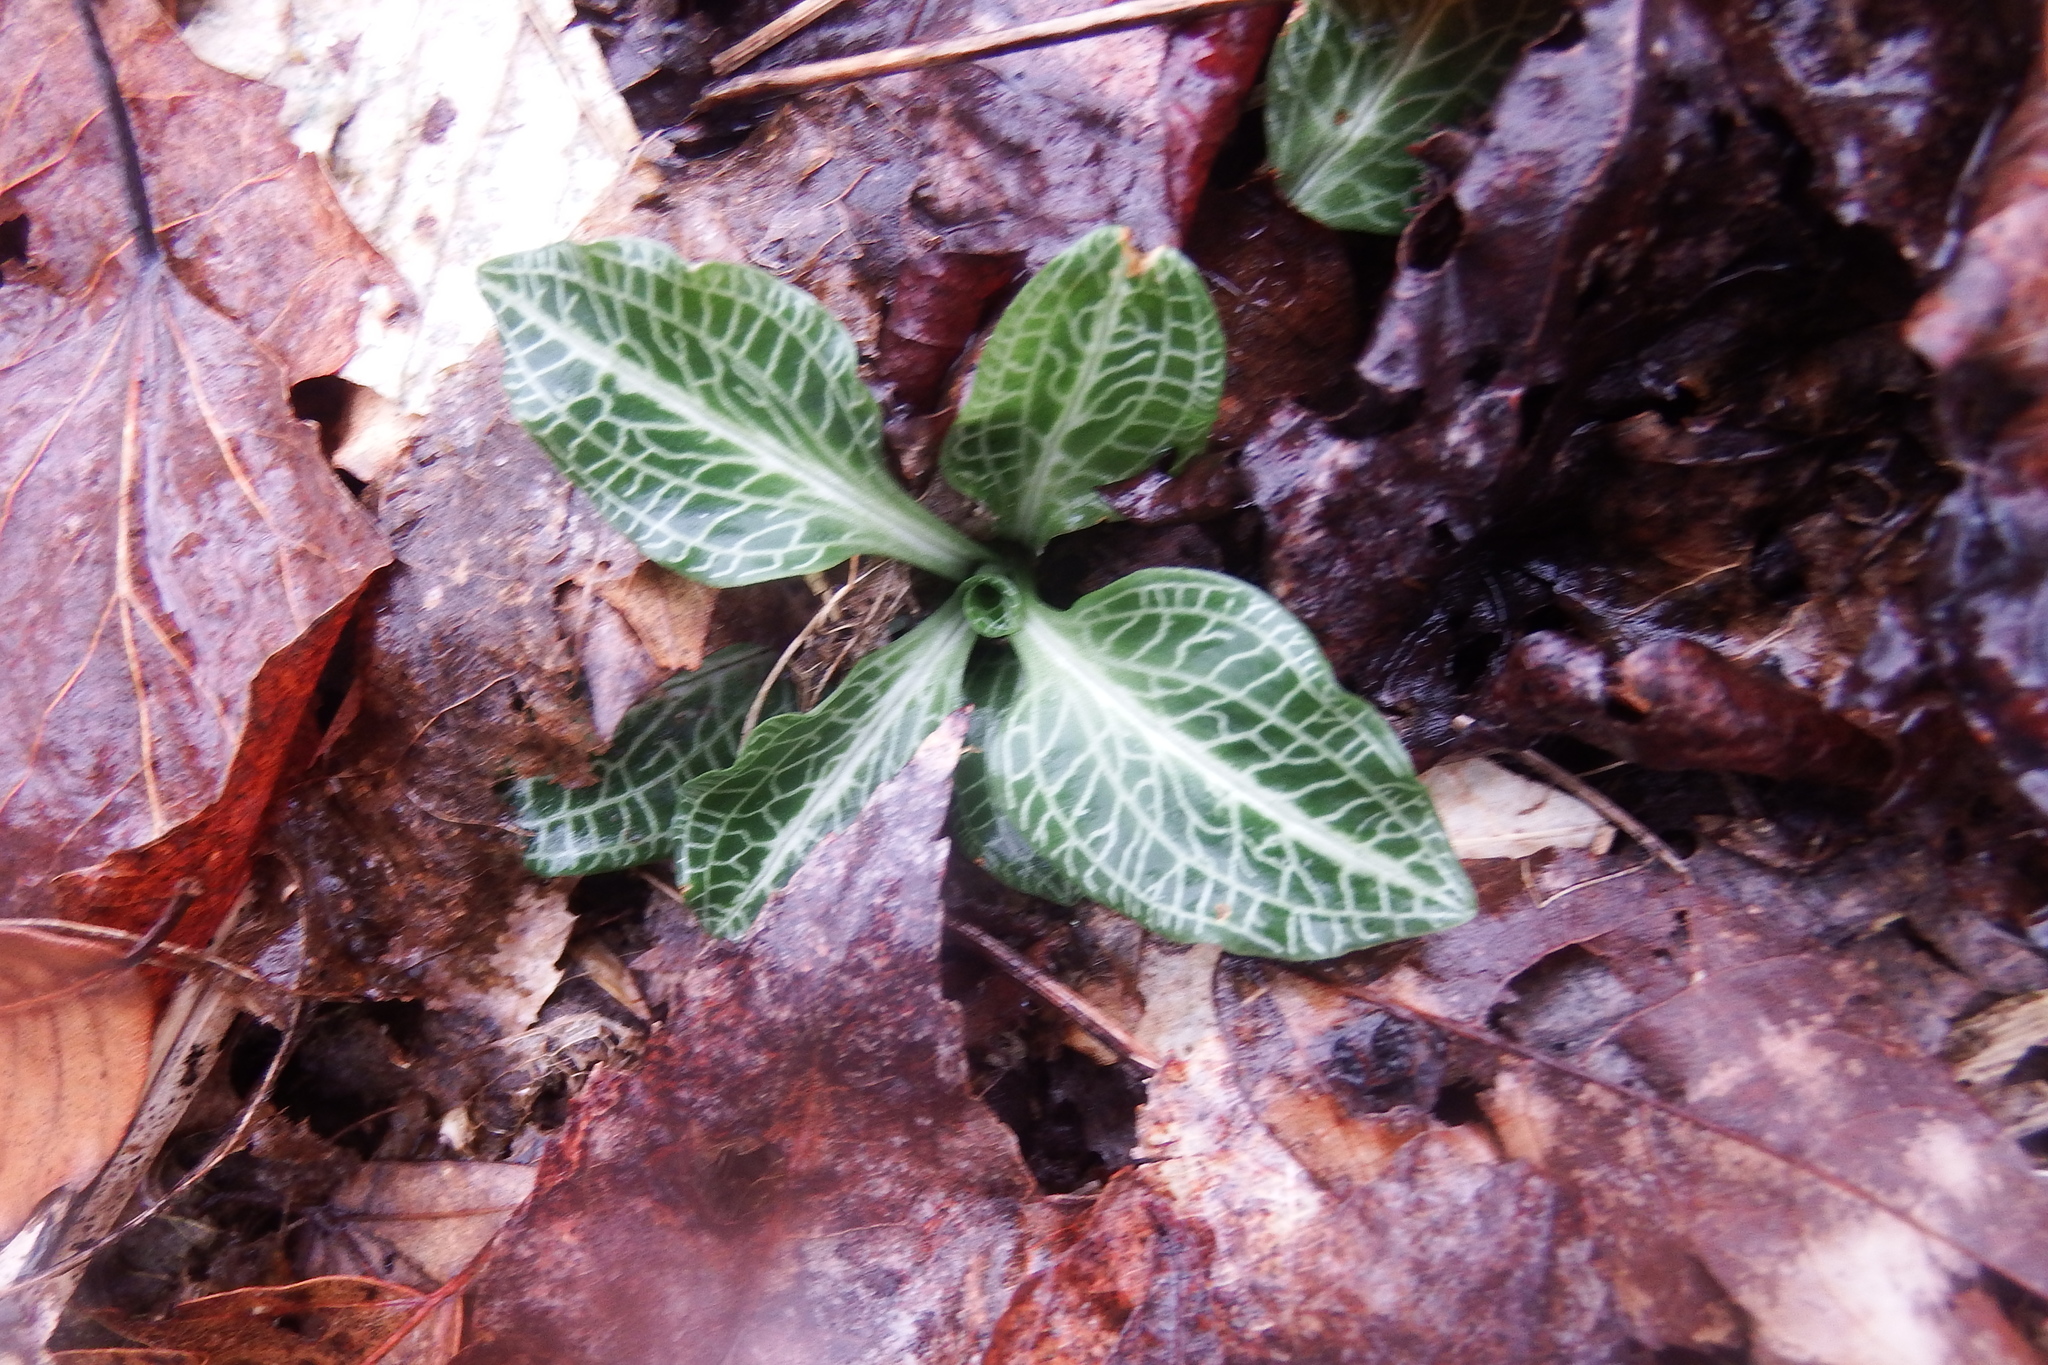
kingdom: Plantae
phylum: Tracheophyta
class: Liliopsida
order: Asparagales
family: Orchidaceae
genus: Goodyera
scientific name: Goodyera pubescens
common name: Downy rattlesnake-plantain
